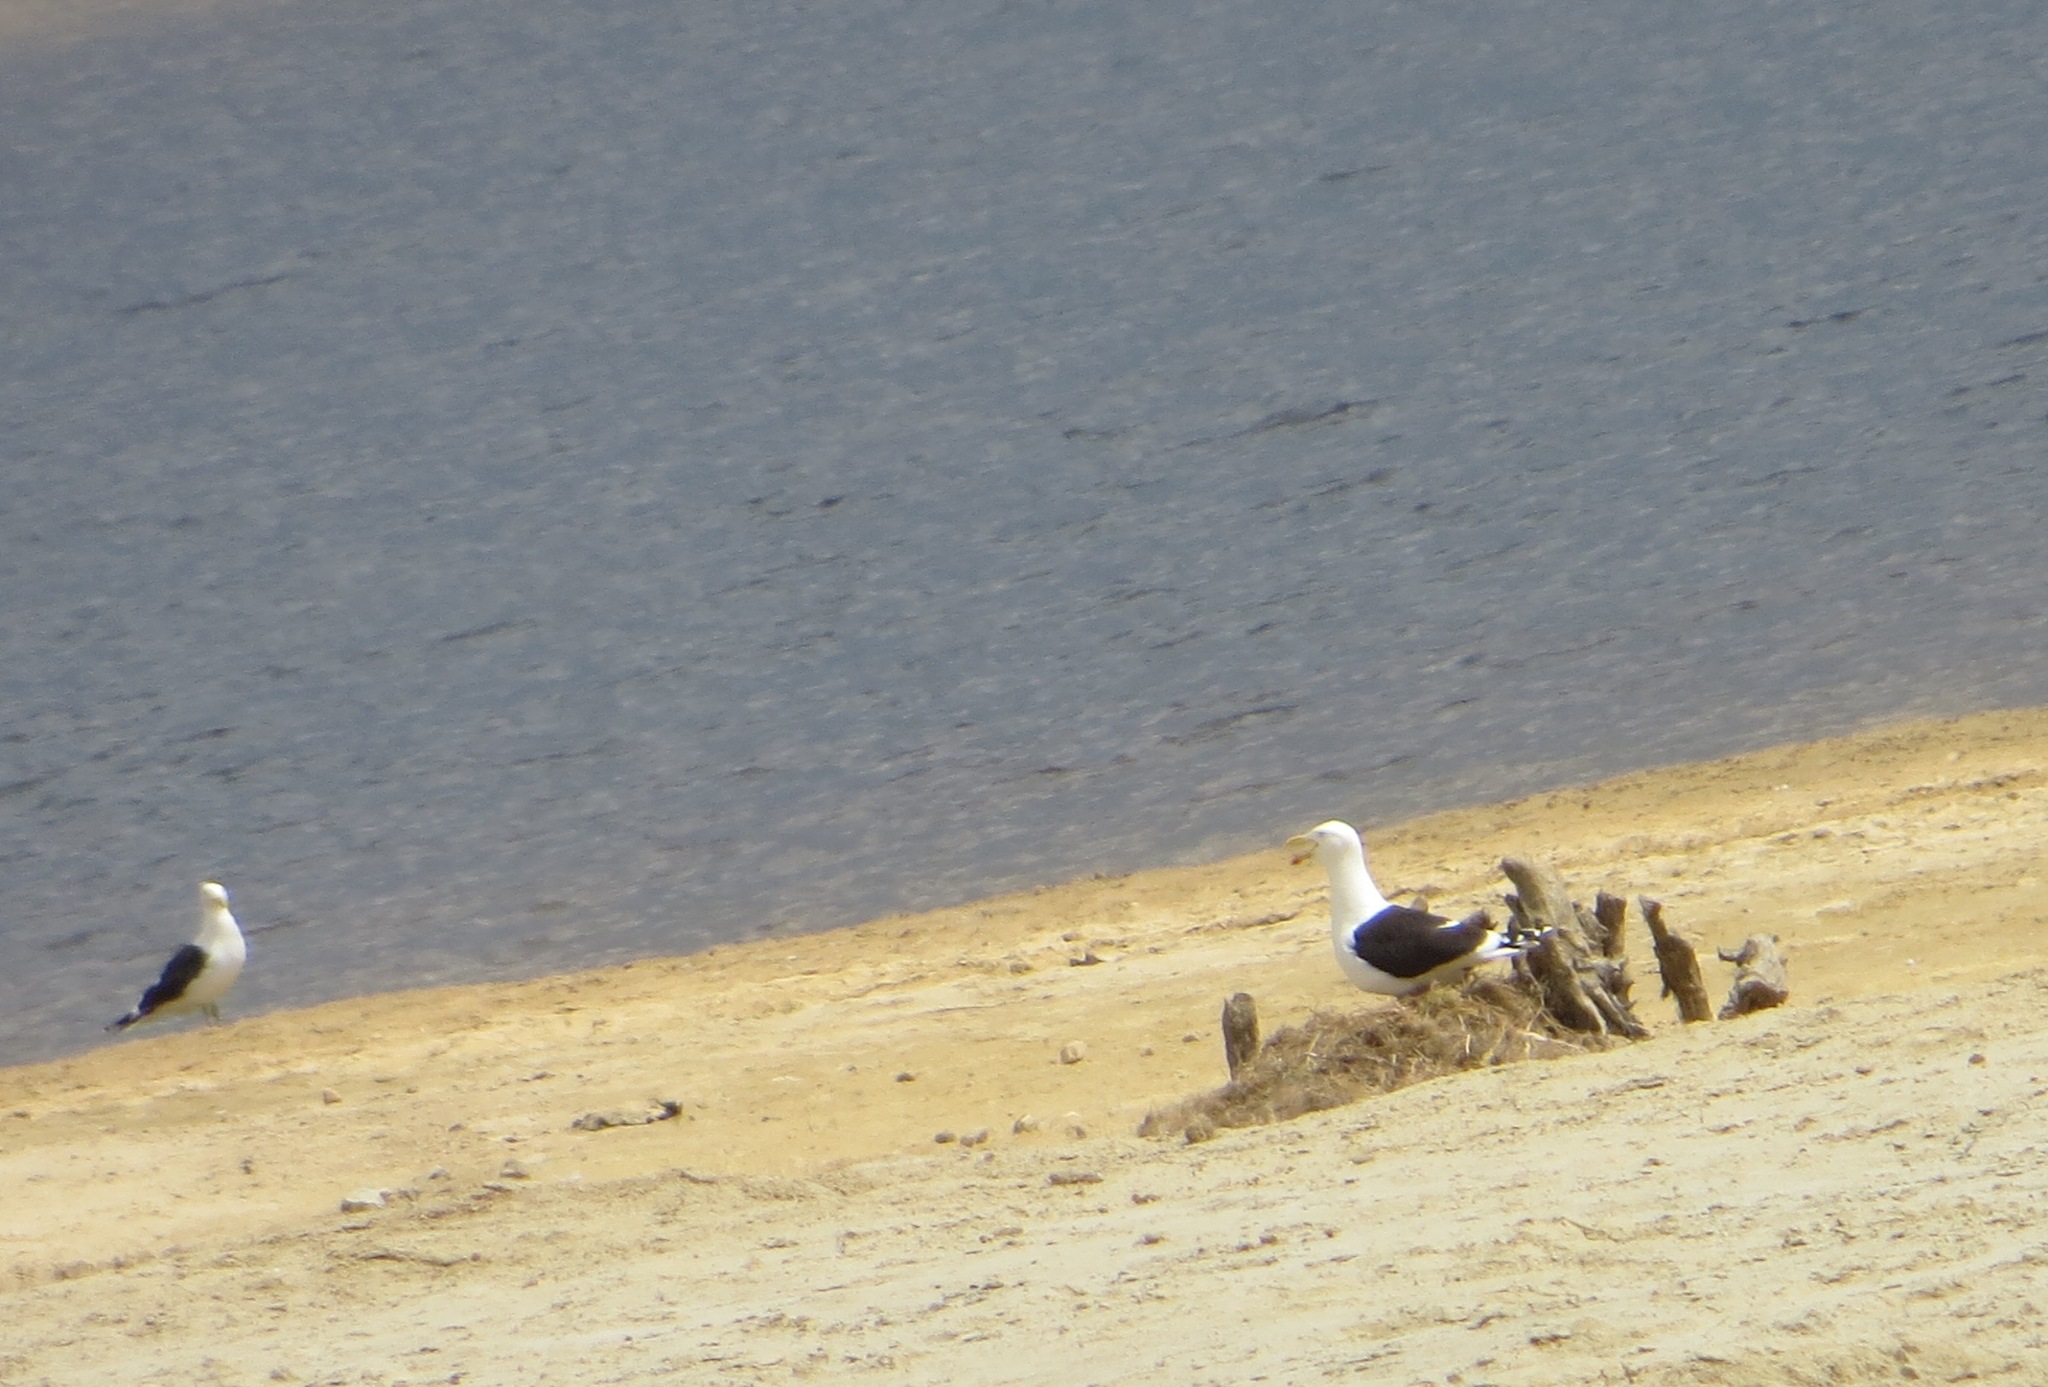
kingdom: Animalia
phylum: Chordata
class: Aves
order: Charadriiformes
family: Laridae
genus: Larus
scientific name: Larus dominicanus
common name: Kelp gull
